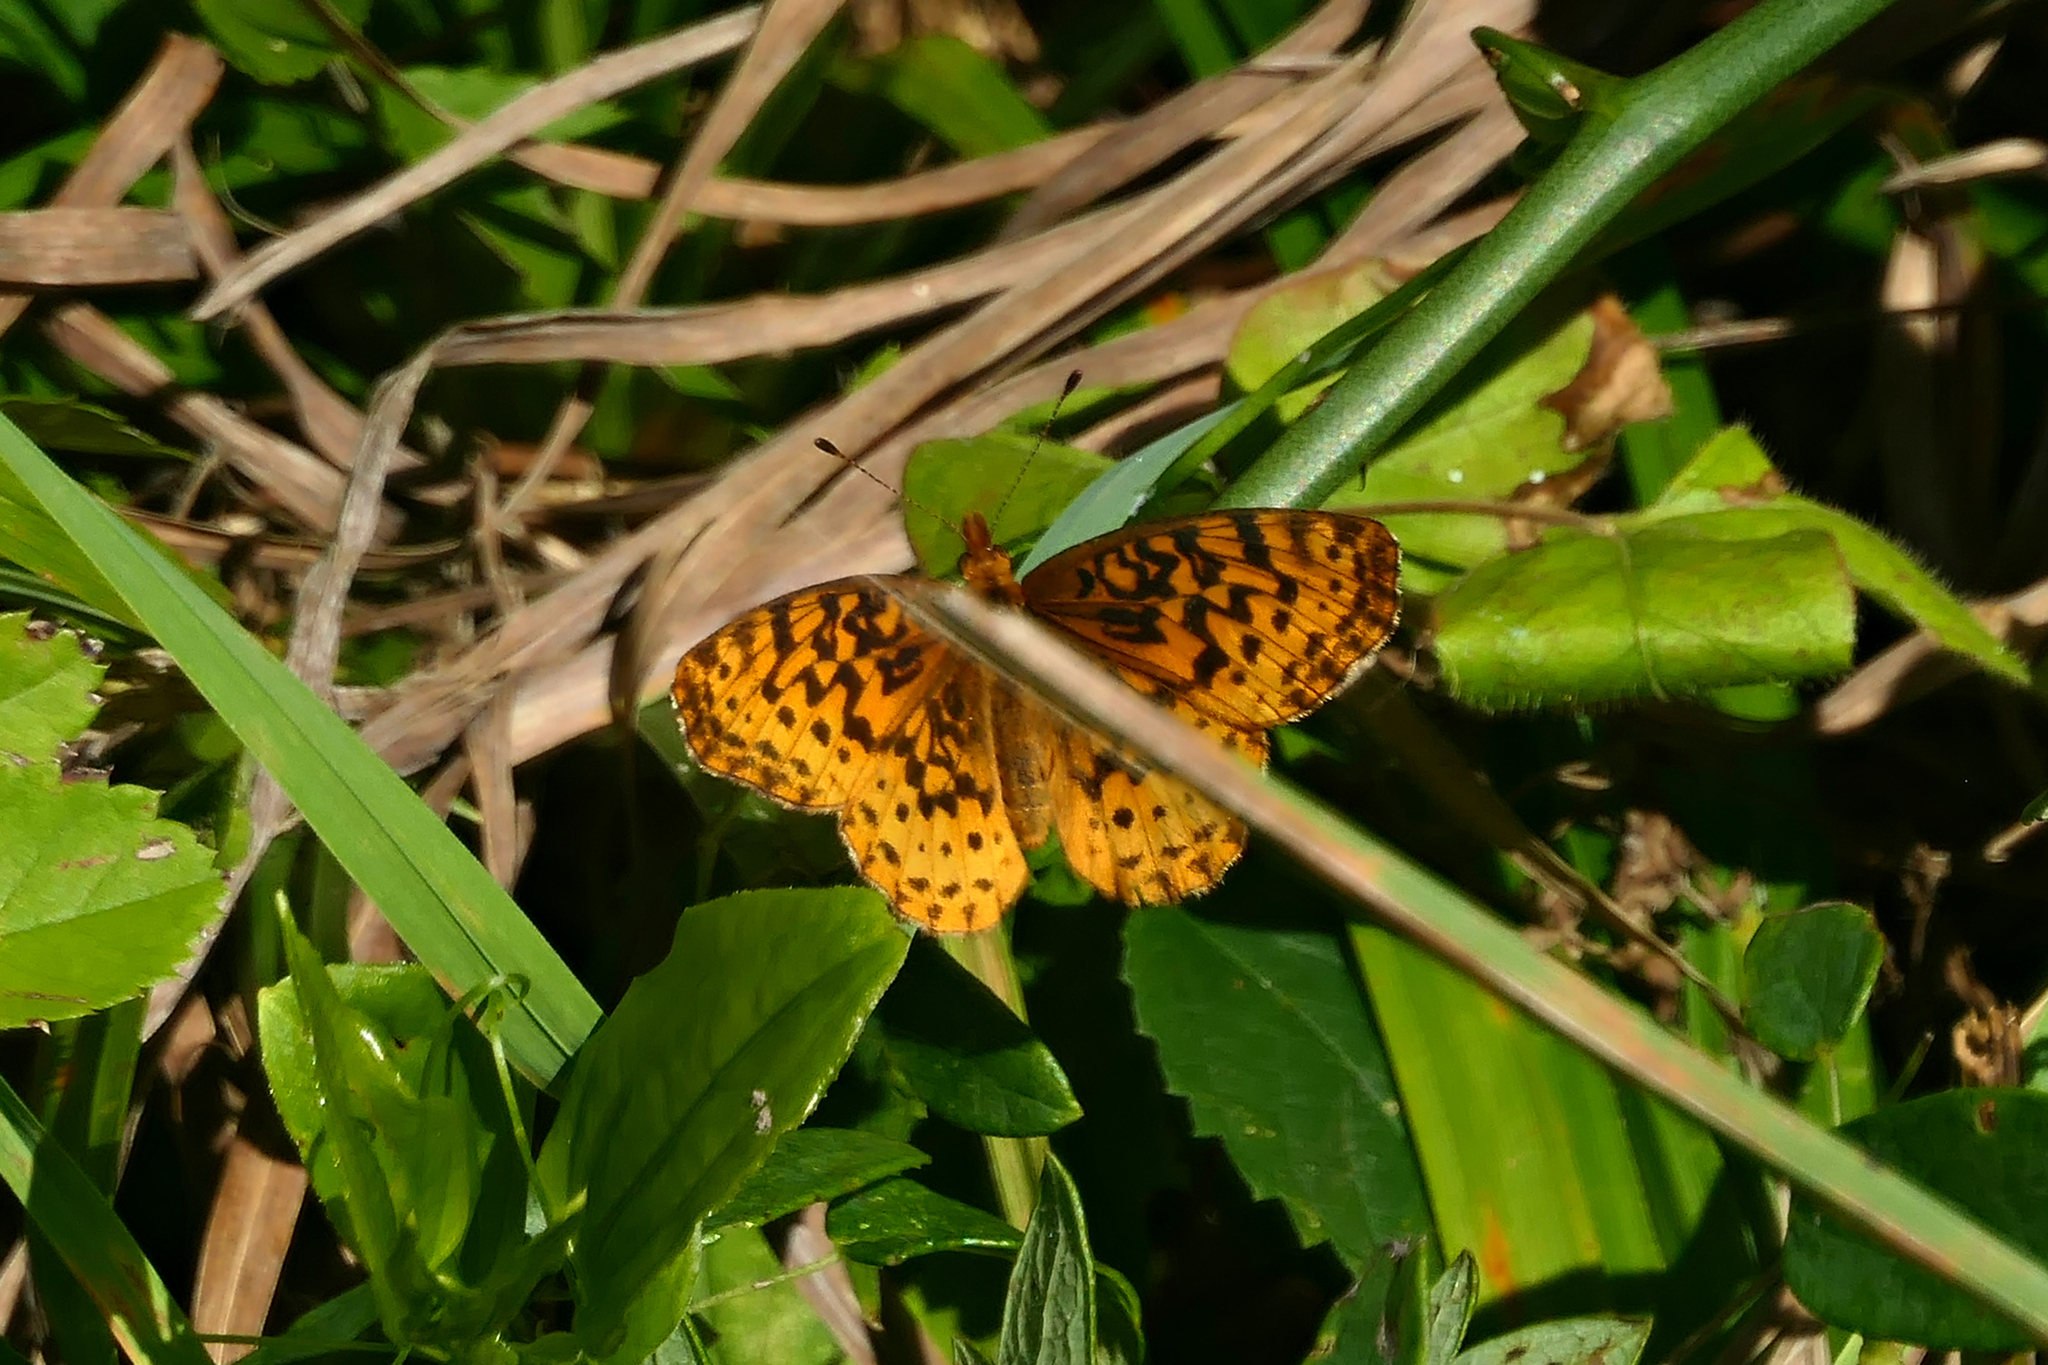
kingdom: Animalia
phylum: Arthropoda
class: Insecta
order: Lepidoptera
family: Nymphalidae
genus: Clossiana
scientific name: Clossiana toddi
